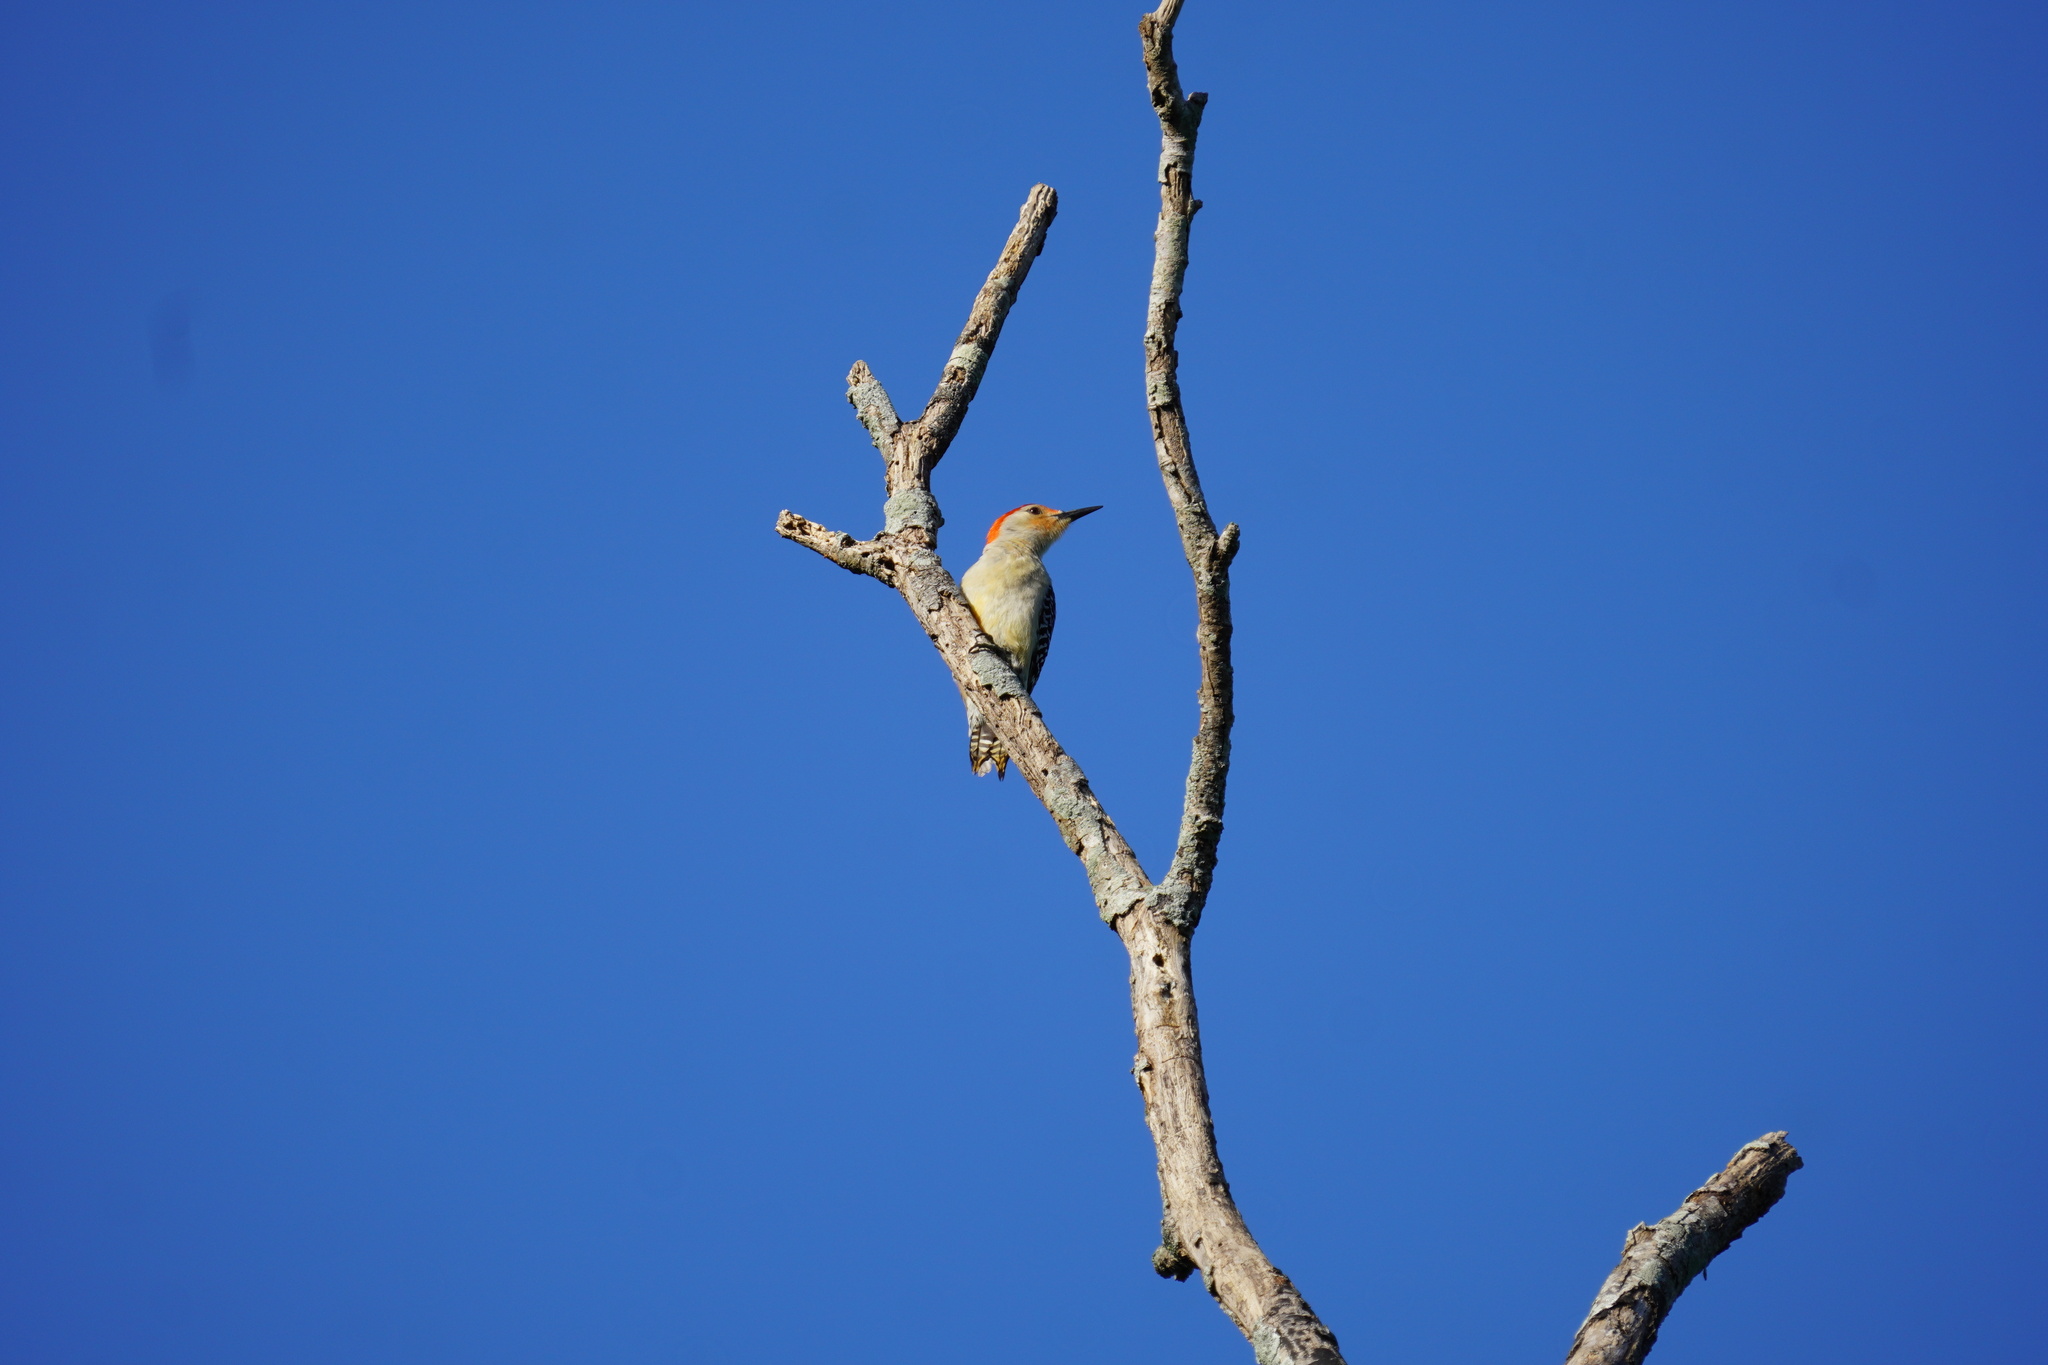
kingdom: Animalia
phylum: Chordata
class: Aves
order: Piciformes
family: Picidae
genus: Melanerpes
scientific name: Melanerpes carolinus
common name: Red-bellied woodpecker
